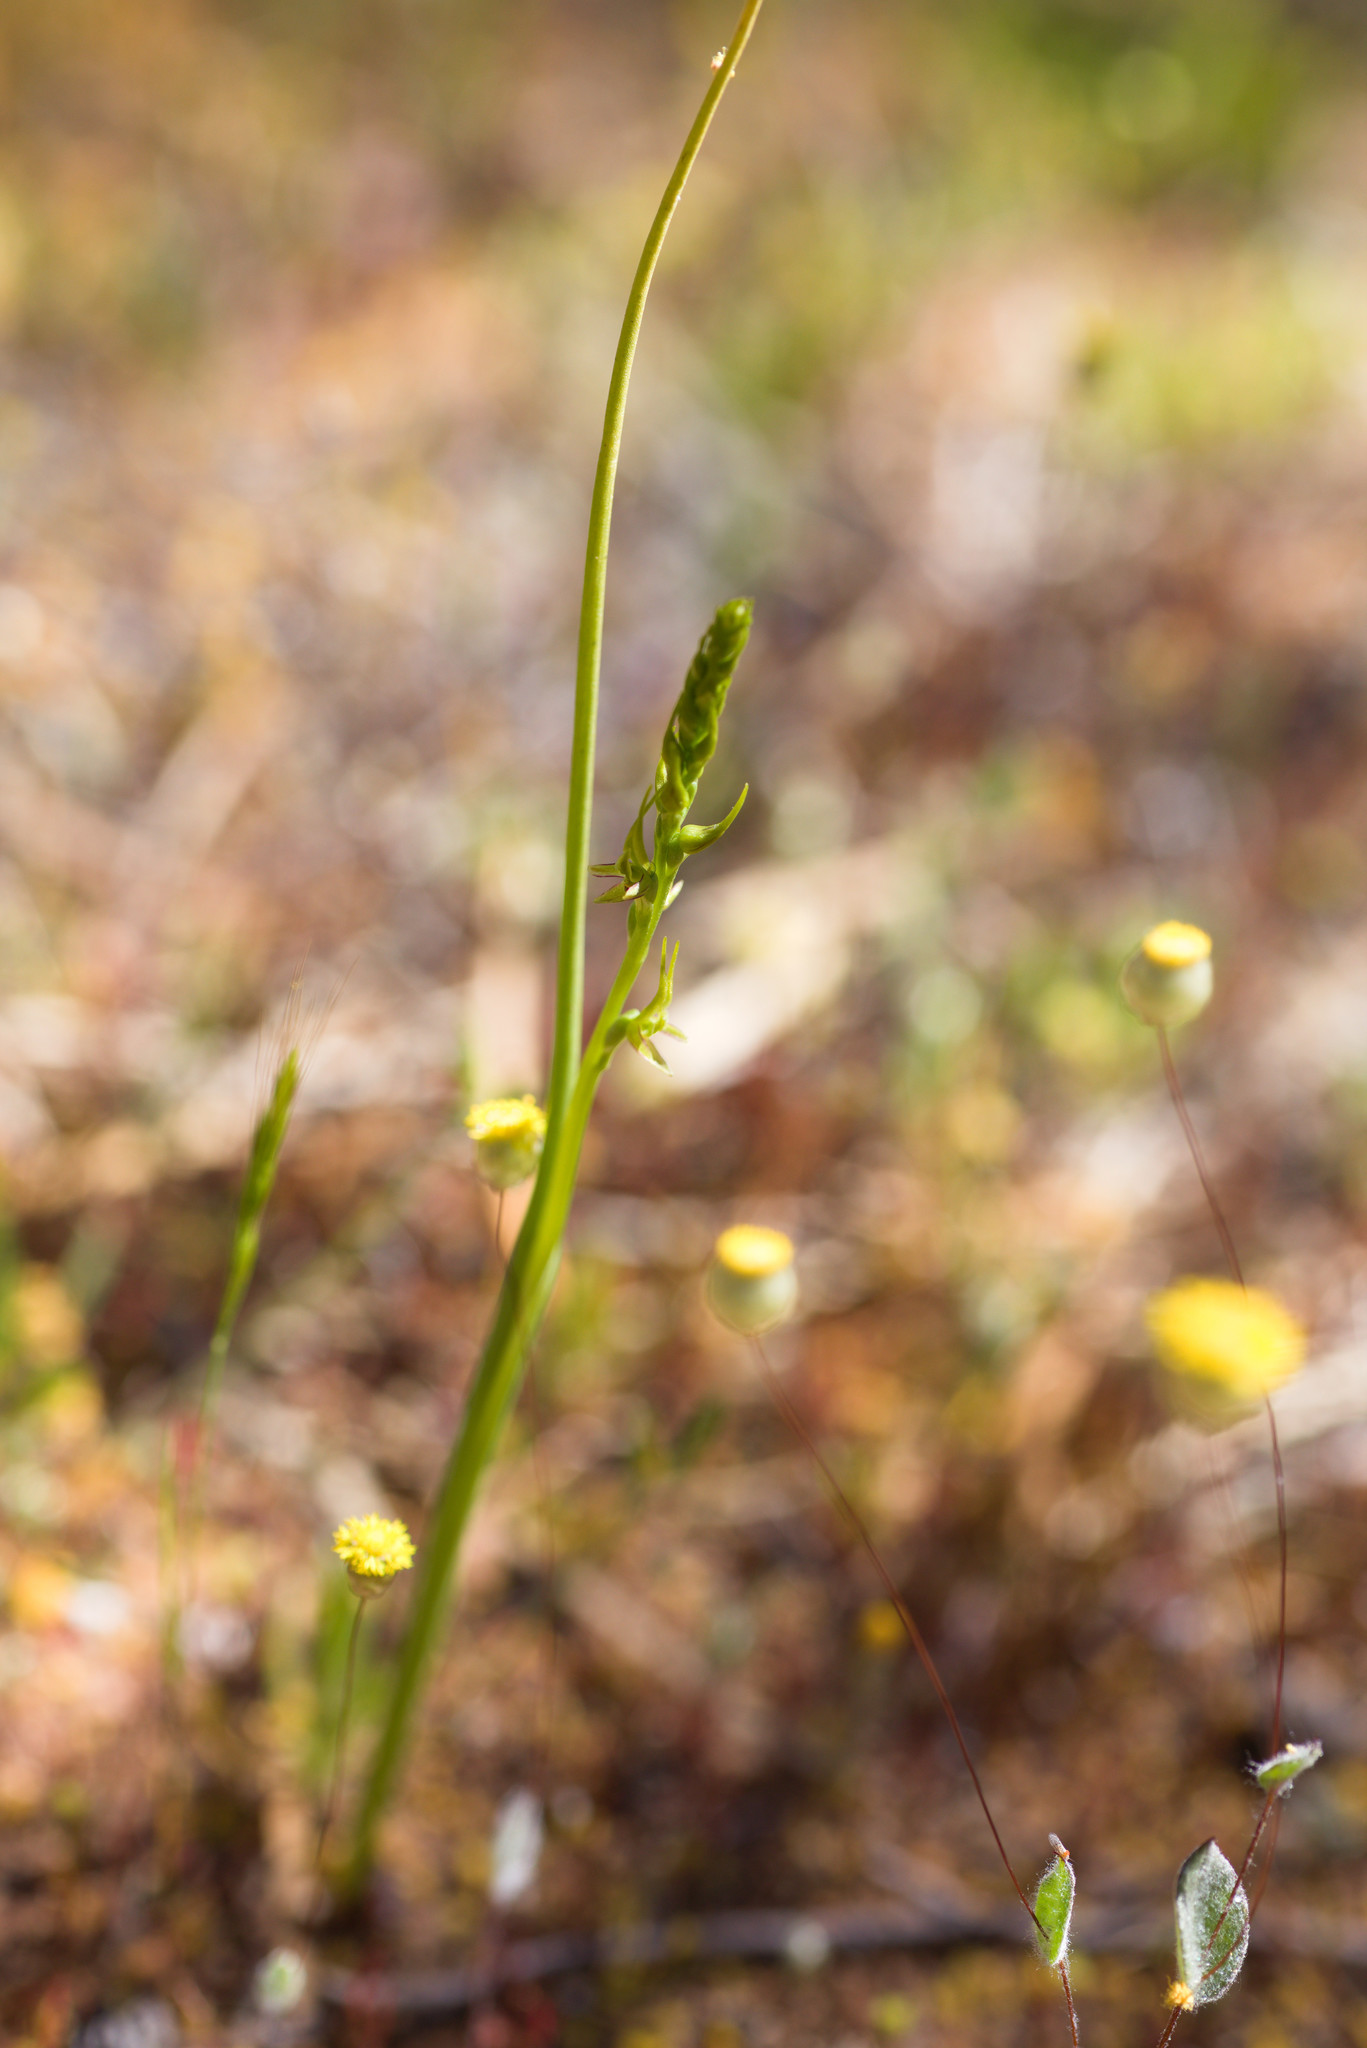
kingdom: Plantae
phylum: Tracheophyta
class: Liliopsida
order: Asparagales
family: Orchidaceae
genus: Prasophyllum
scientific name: Prasophyllum gracile
